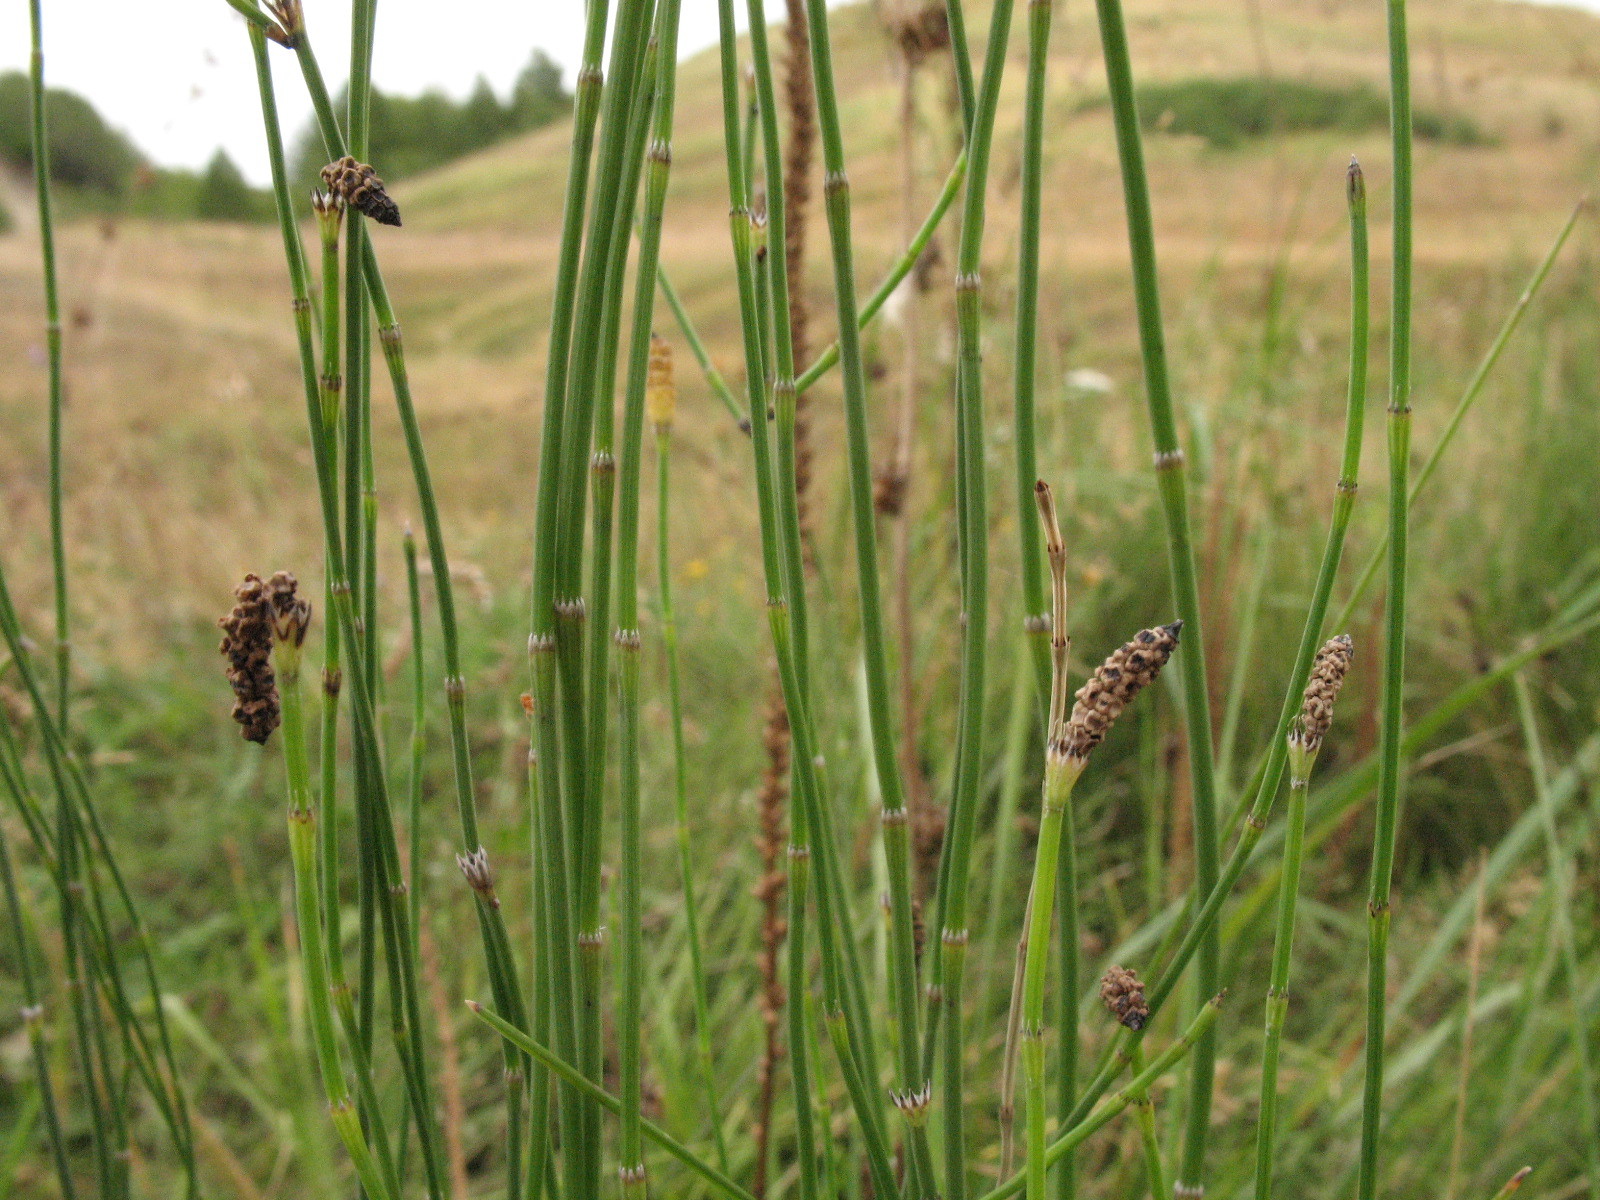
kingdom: Plantae
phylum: Tracheophyta
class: Polypodiopsida
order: Equisetales
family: Equisetaceae
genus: Equisetum
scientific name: Equisetum ramosissimum
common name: Branched horsetail
